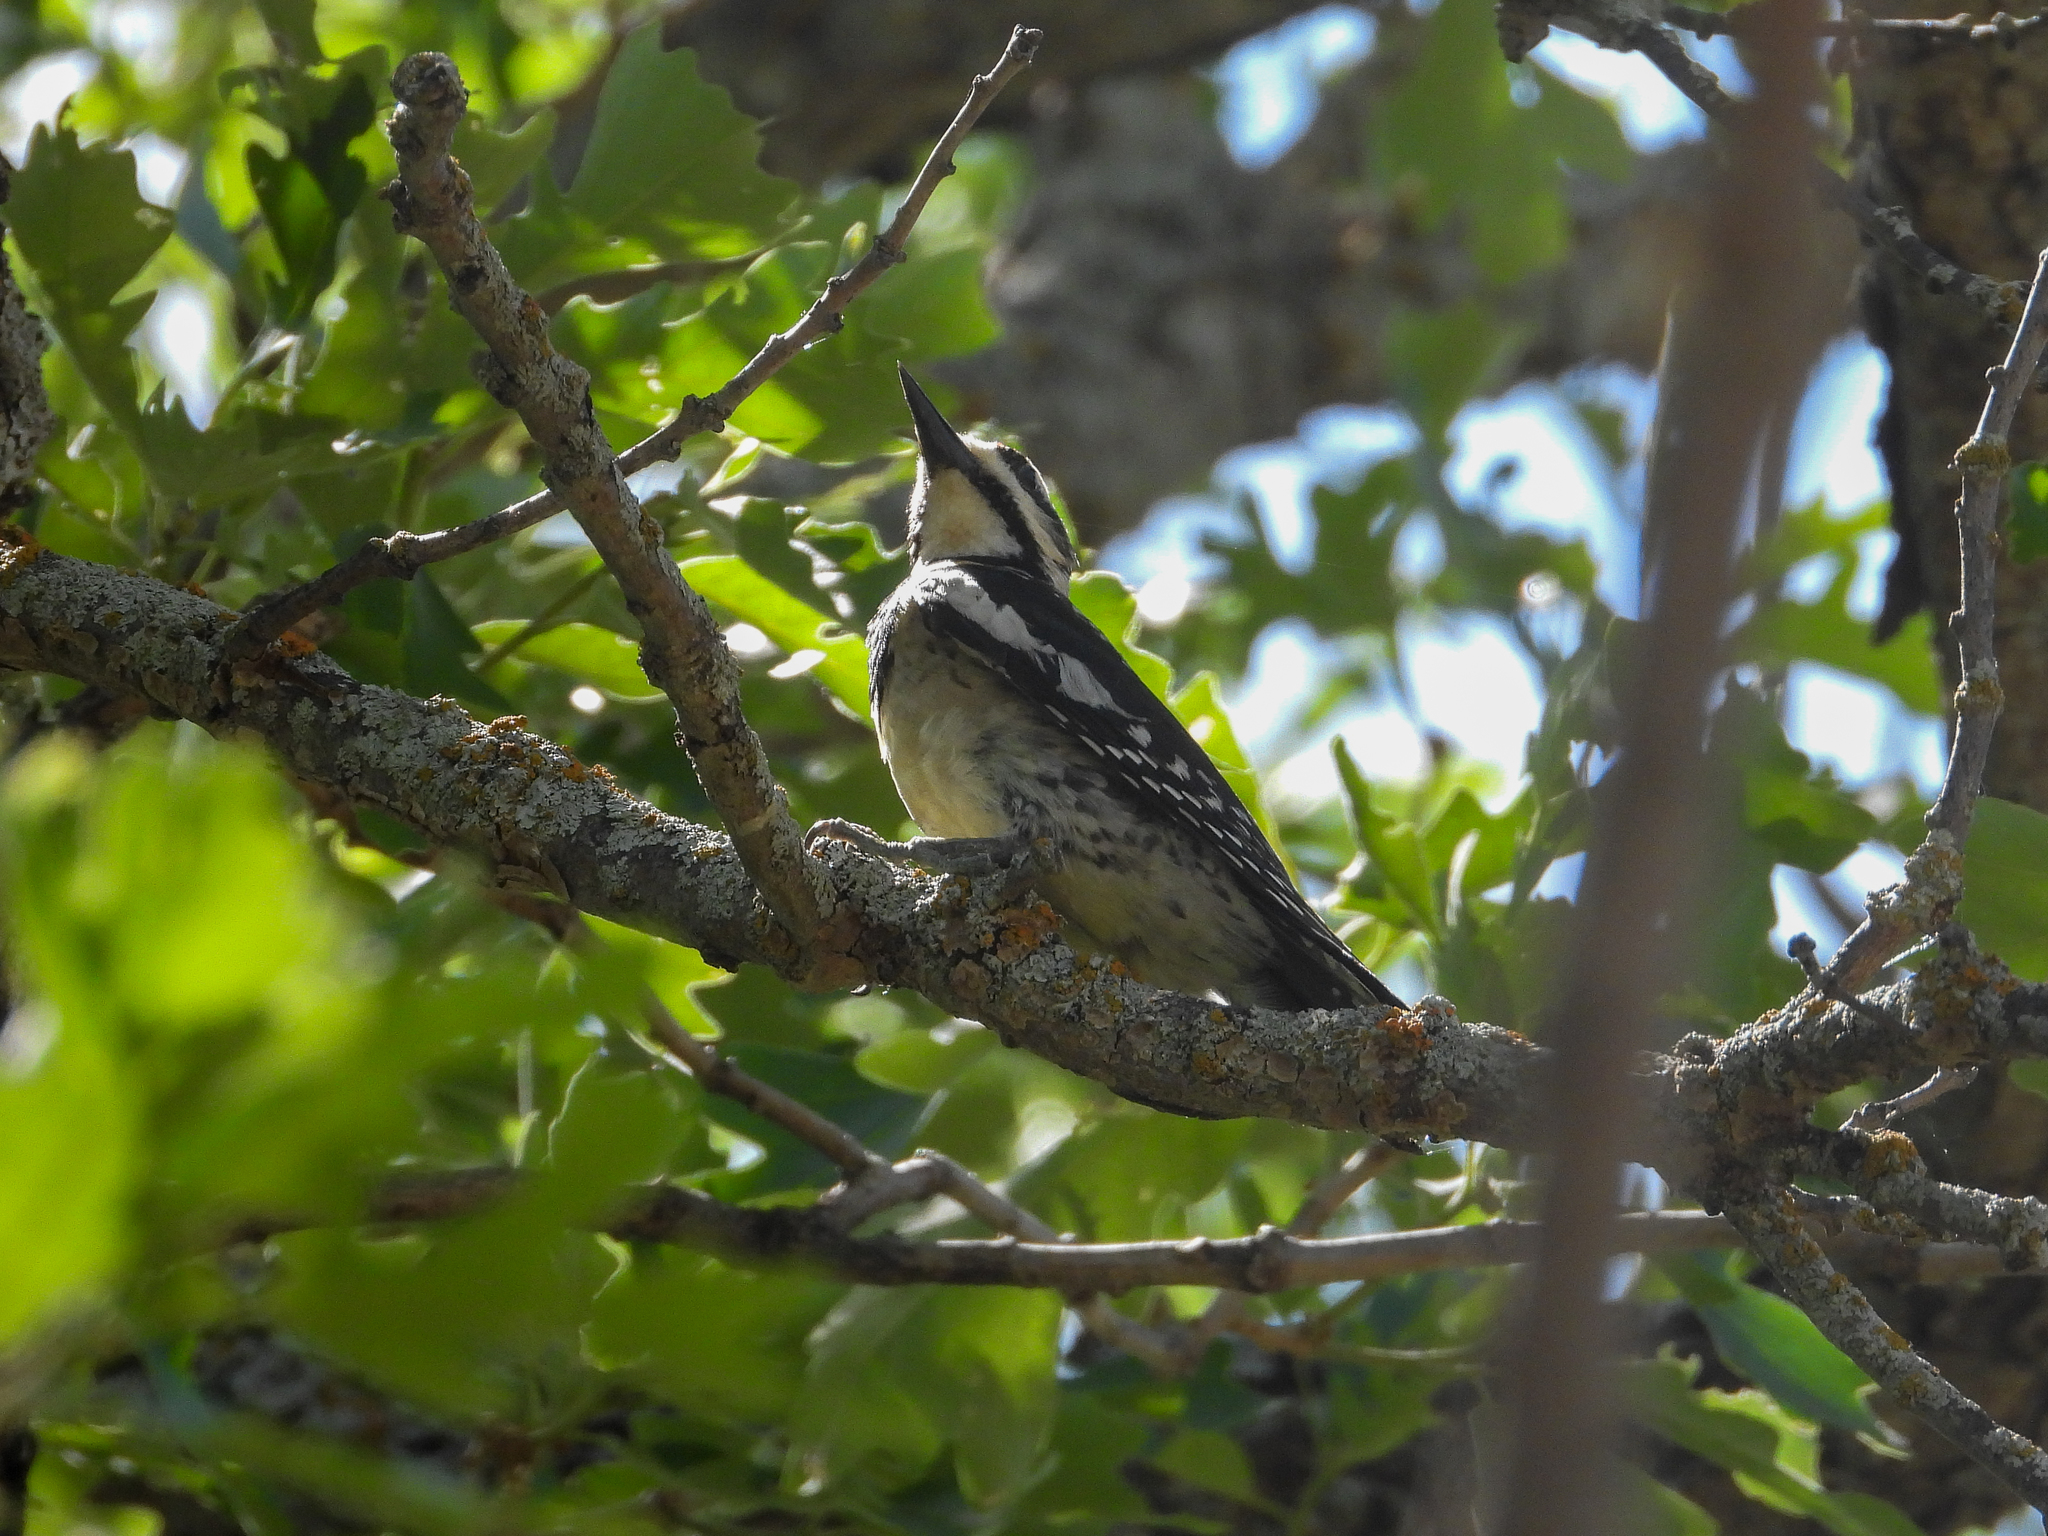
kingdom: Animalia
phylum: Chordata
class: Aves
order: Piciformes
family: Picidae
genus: Sphyrapicus
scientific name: Sphyrapicus varius
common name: Yellow-bellied sapsucker
